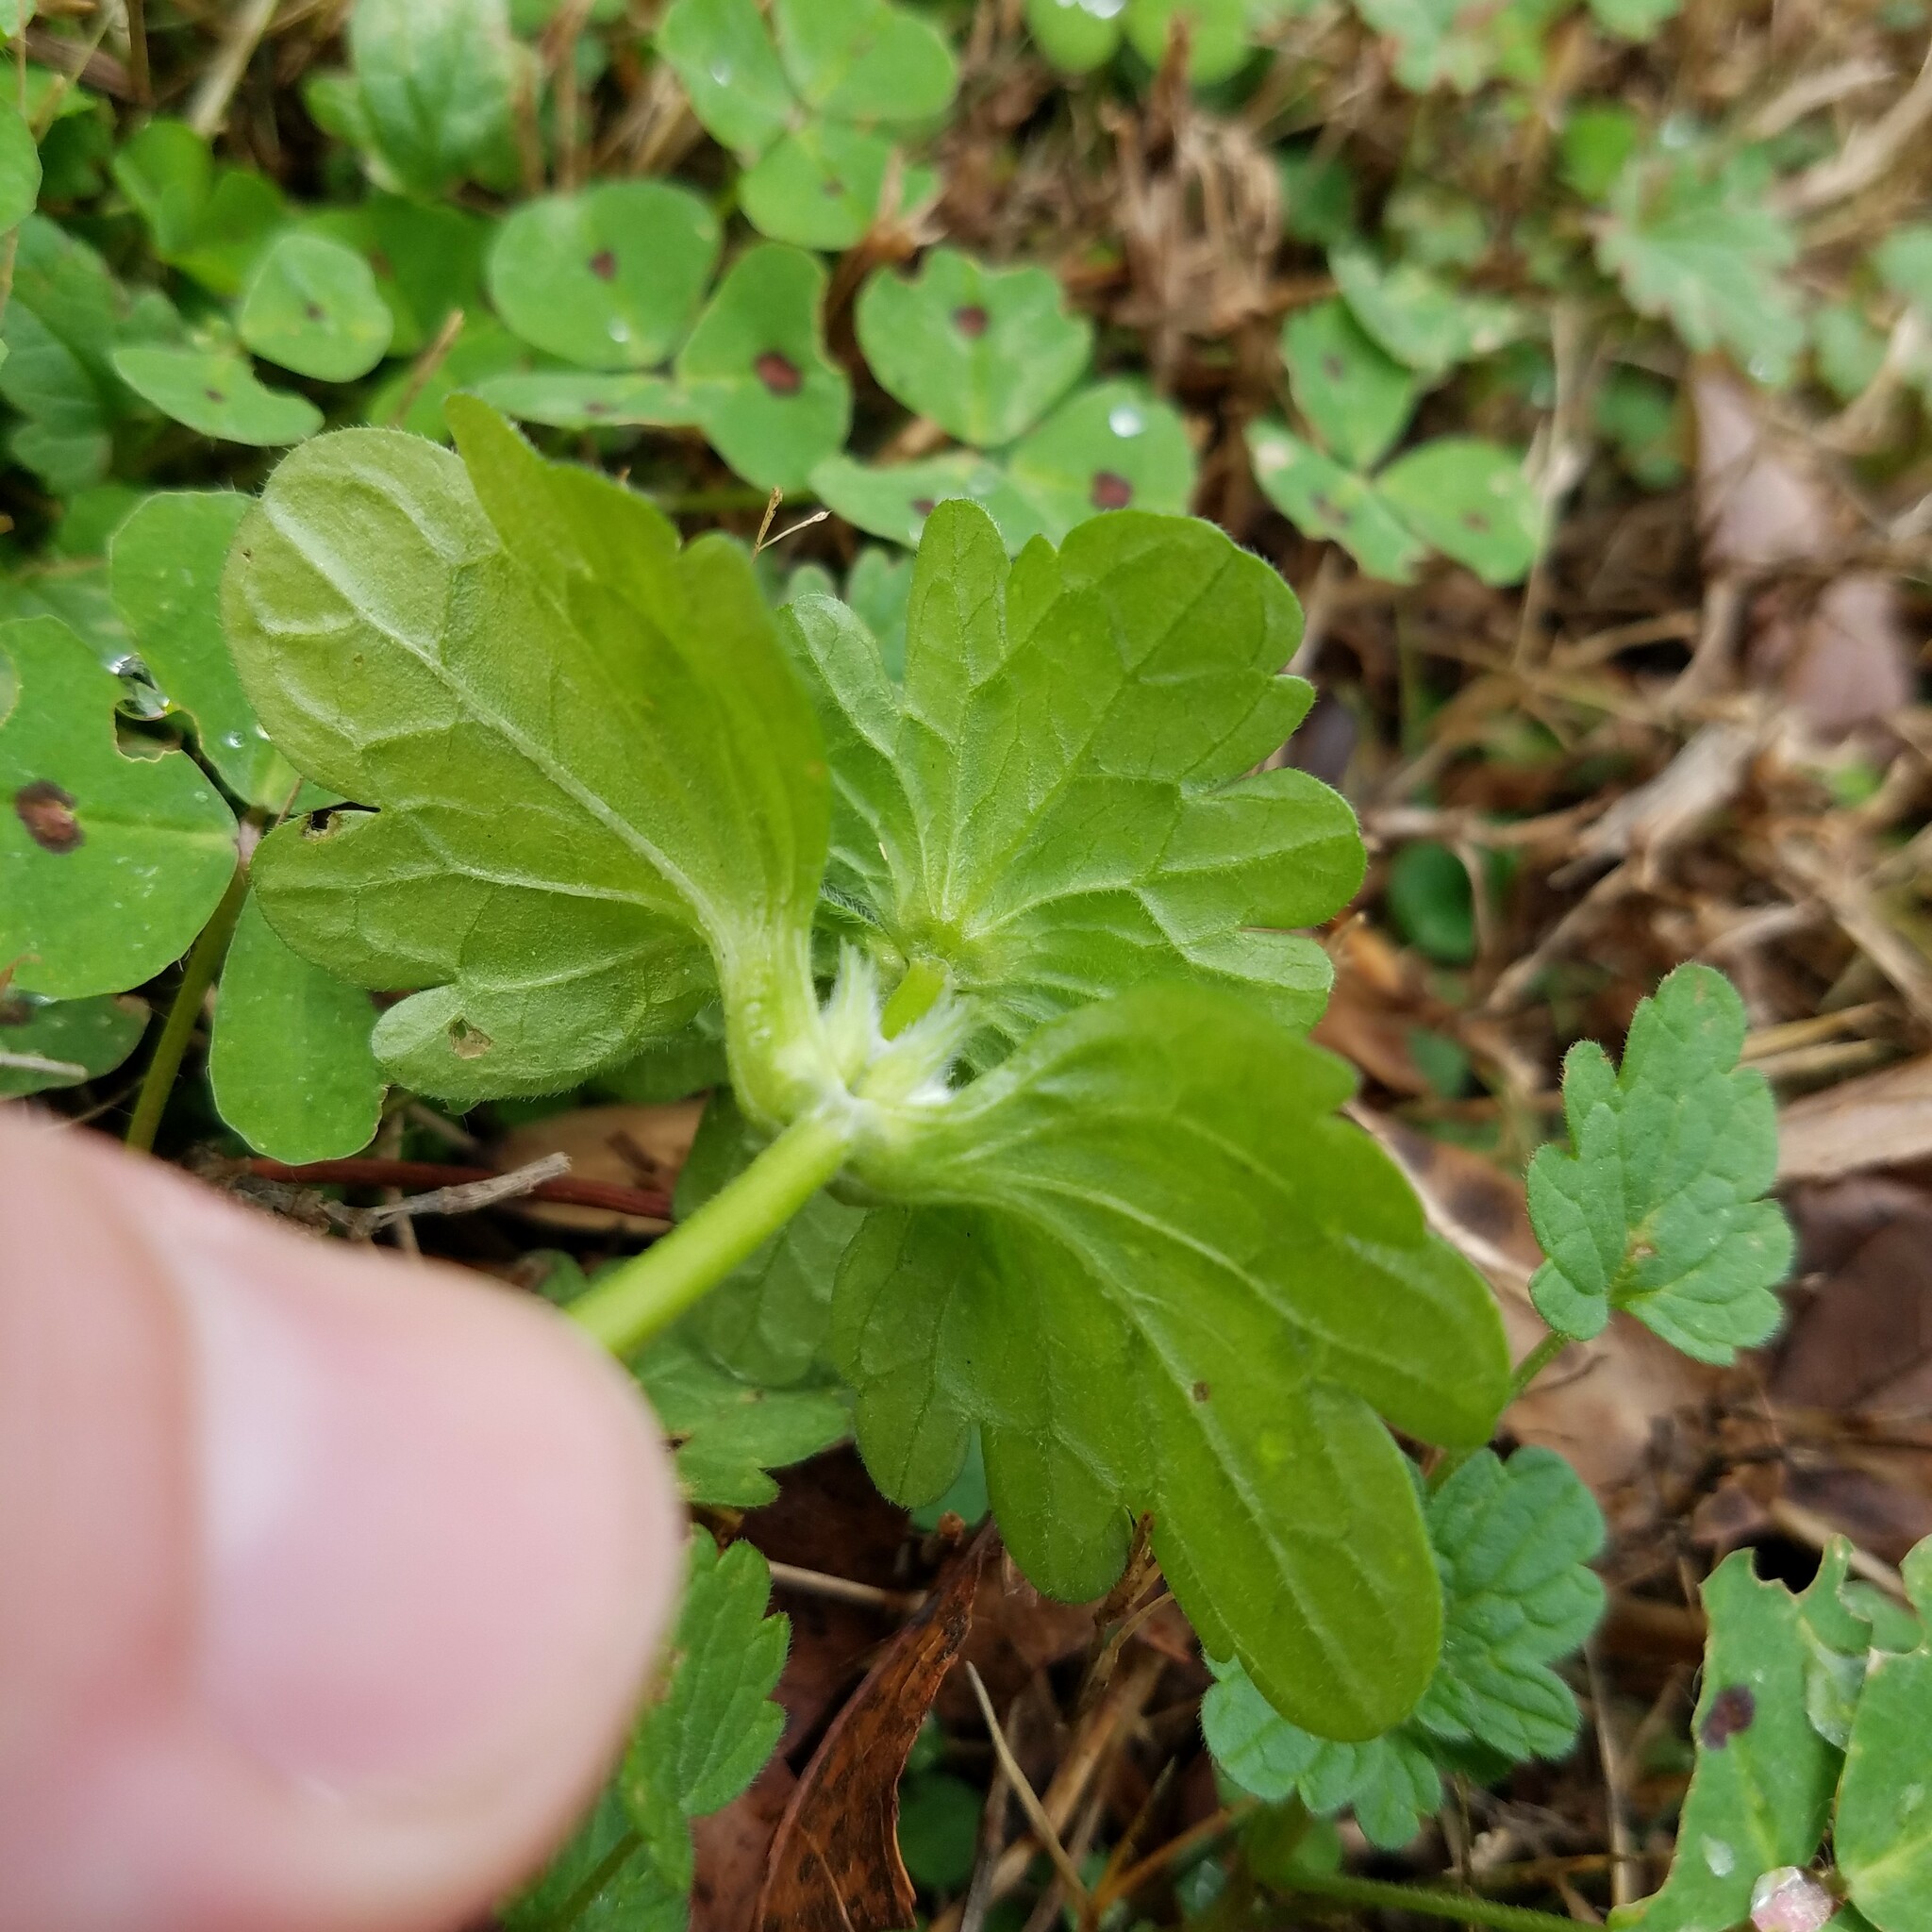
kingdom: Plantae
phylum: Tracheophyta
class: Magnoliopsida
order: Lamiales
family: Lamiaceae
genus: Lamium
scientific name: Lamium amplexicaule
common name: Henbit dead-nettle
